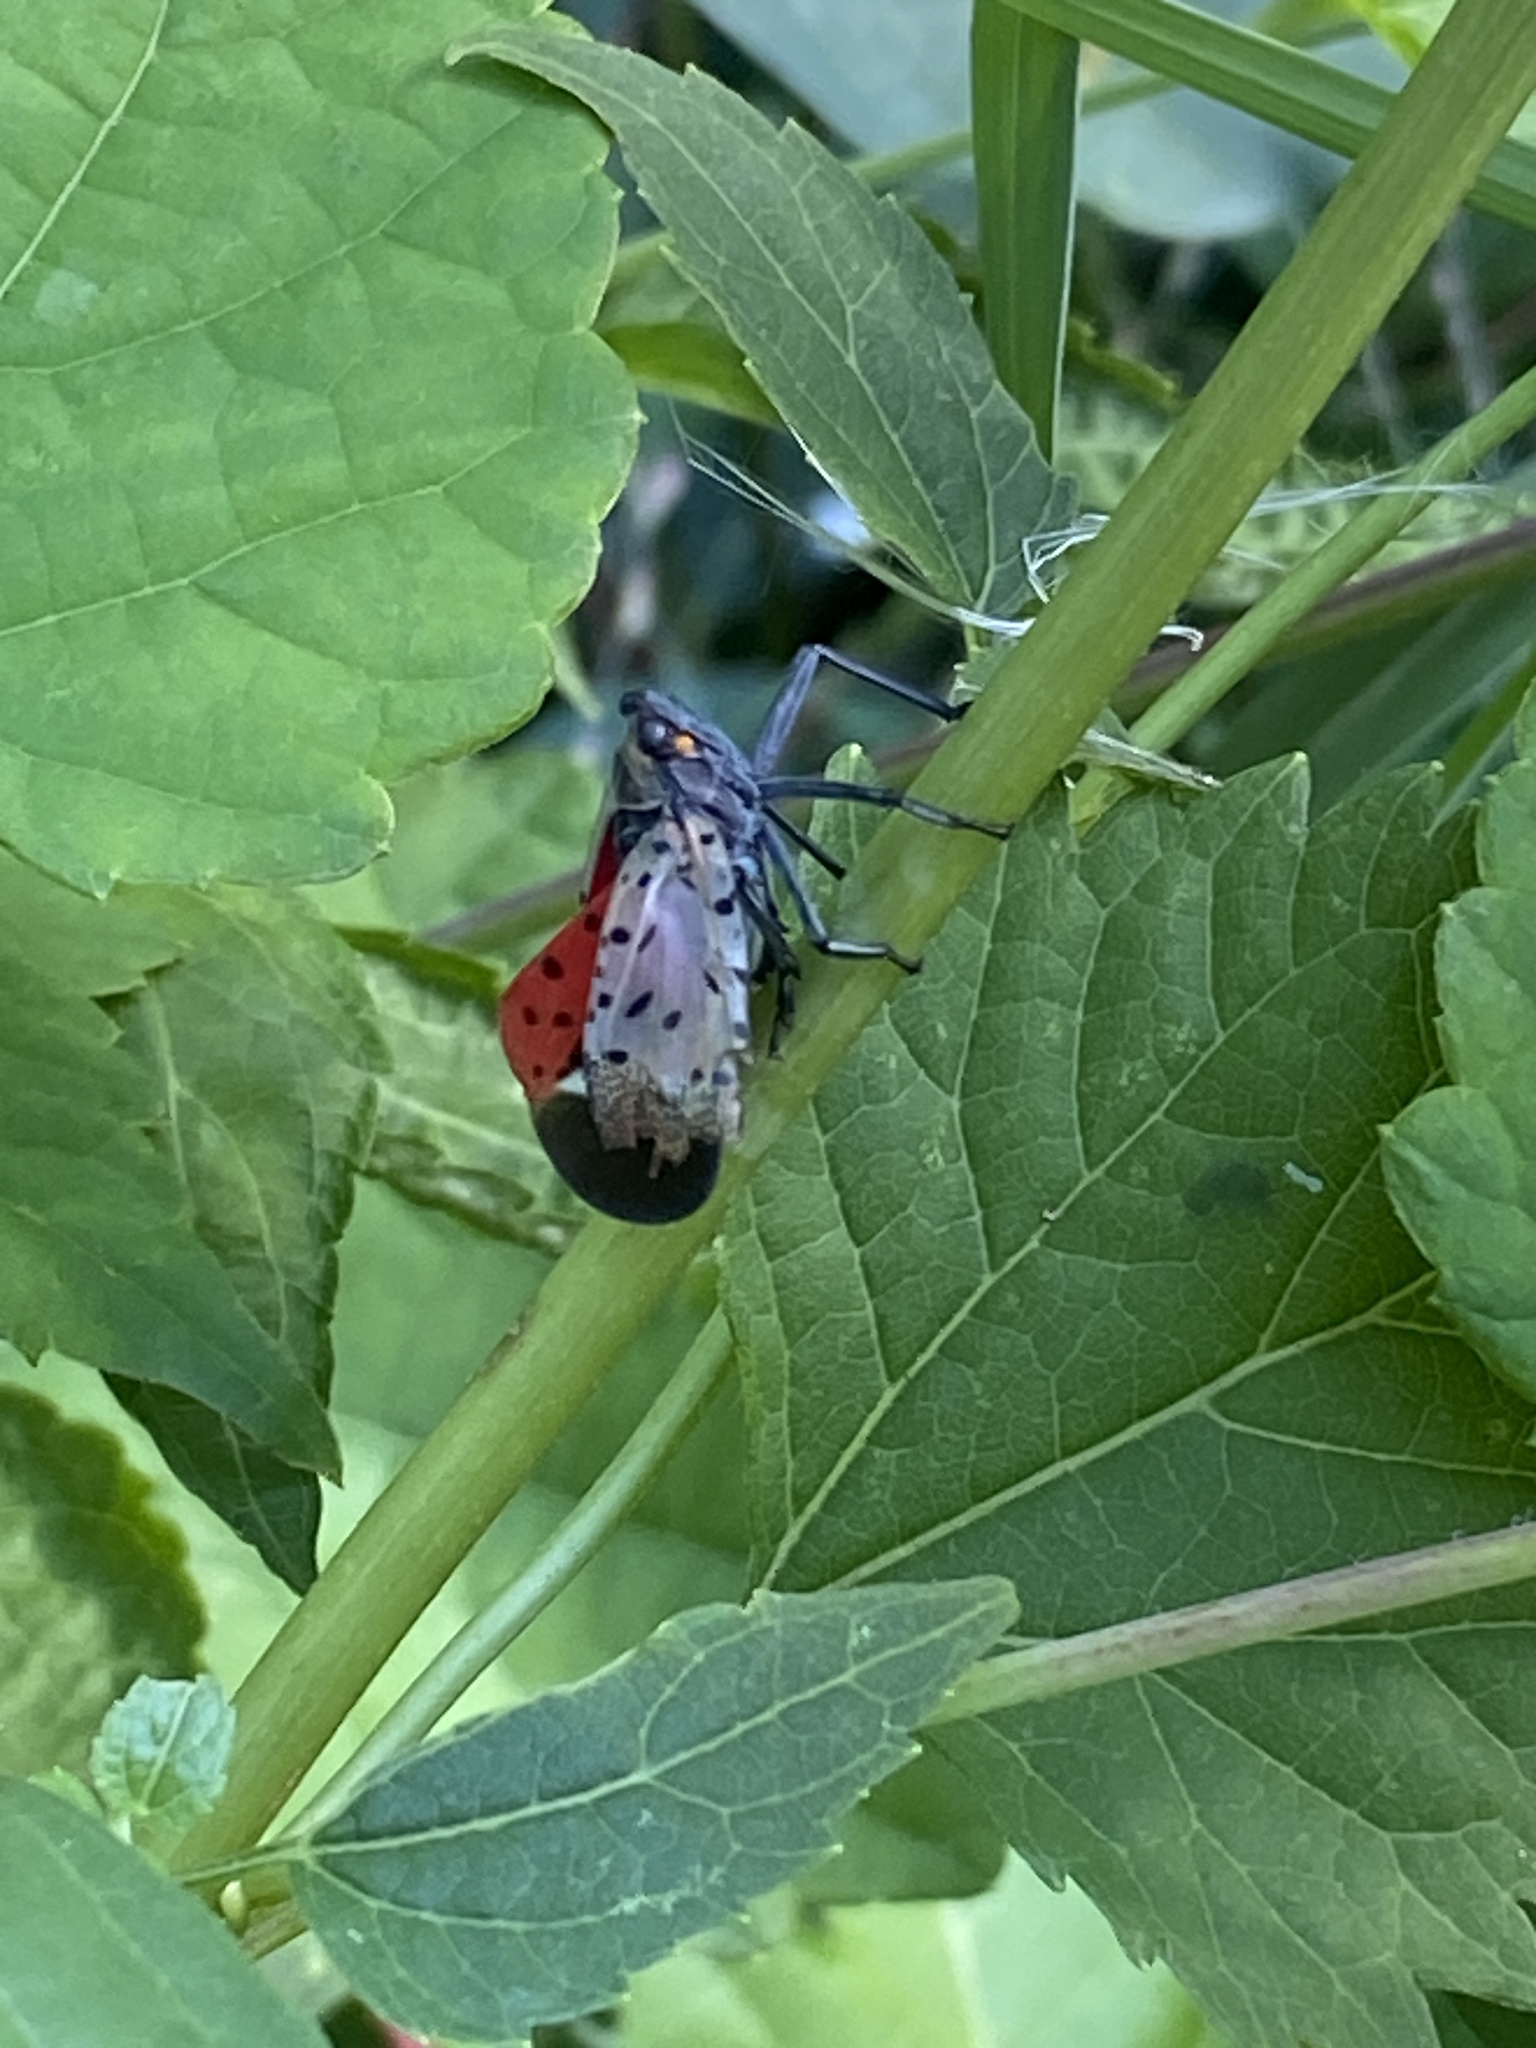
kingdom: Animalia
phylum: Arthropoda
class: Insecta
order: Hemiptera
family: Fulgoridae
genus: Lycorma
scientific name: Lycorma delicatula
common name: Spotted lanternfly
